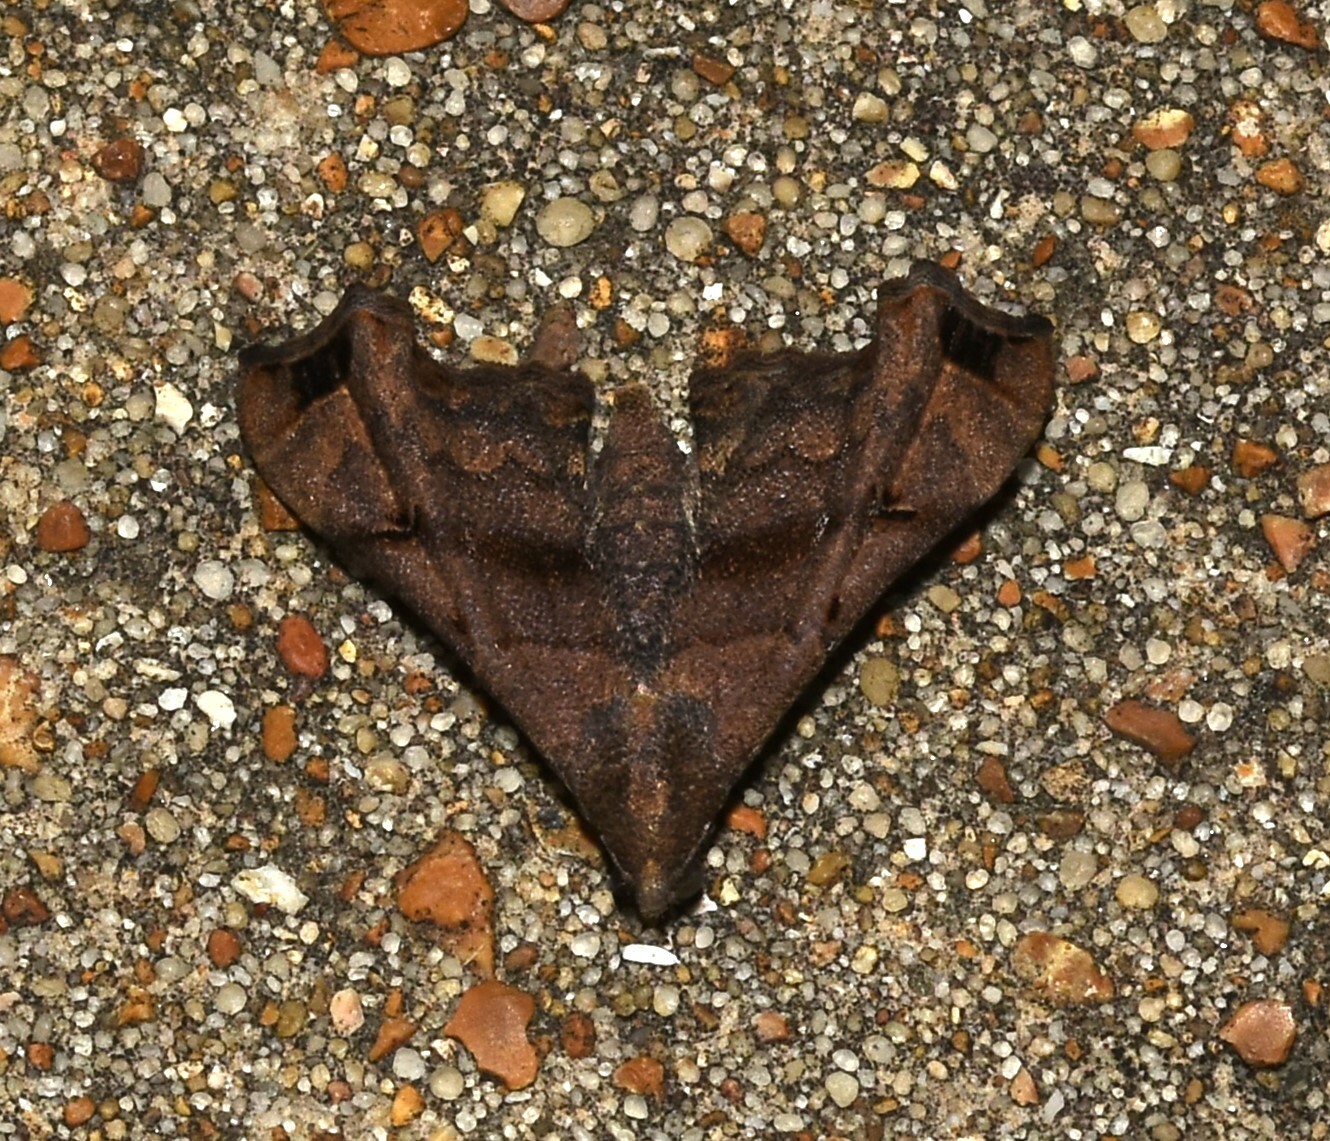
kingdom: Animalia
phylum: Arthropoda
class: Insecta
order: Lepidoptera
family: Erebidae
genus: Palthis
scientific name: Palthis asopialis
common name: Faint-spotted palthis moth
